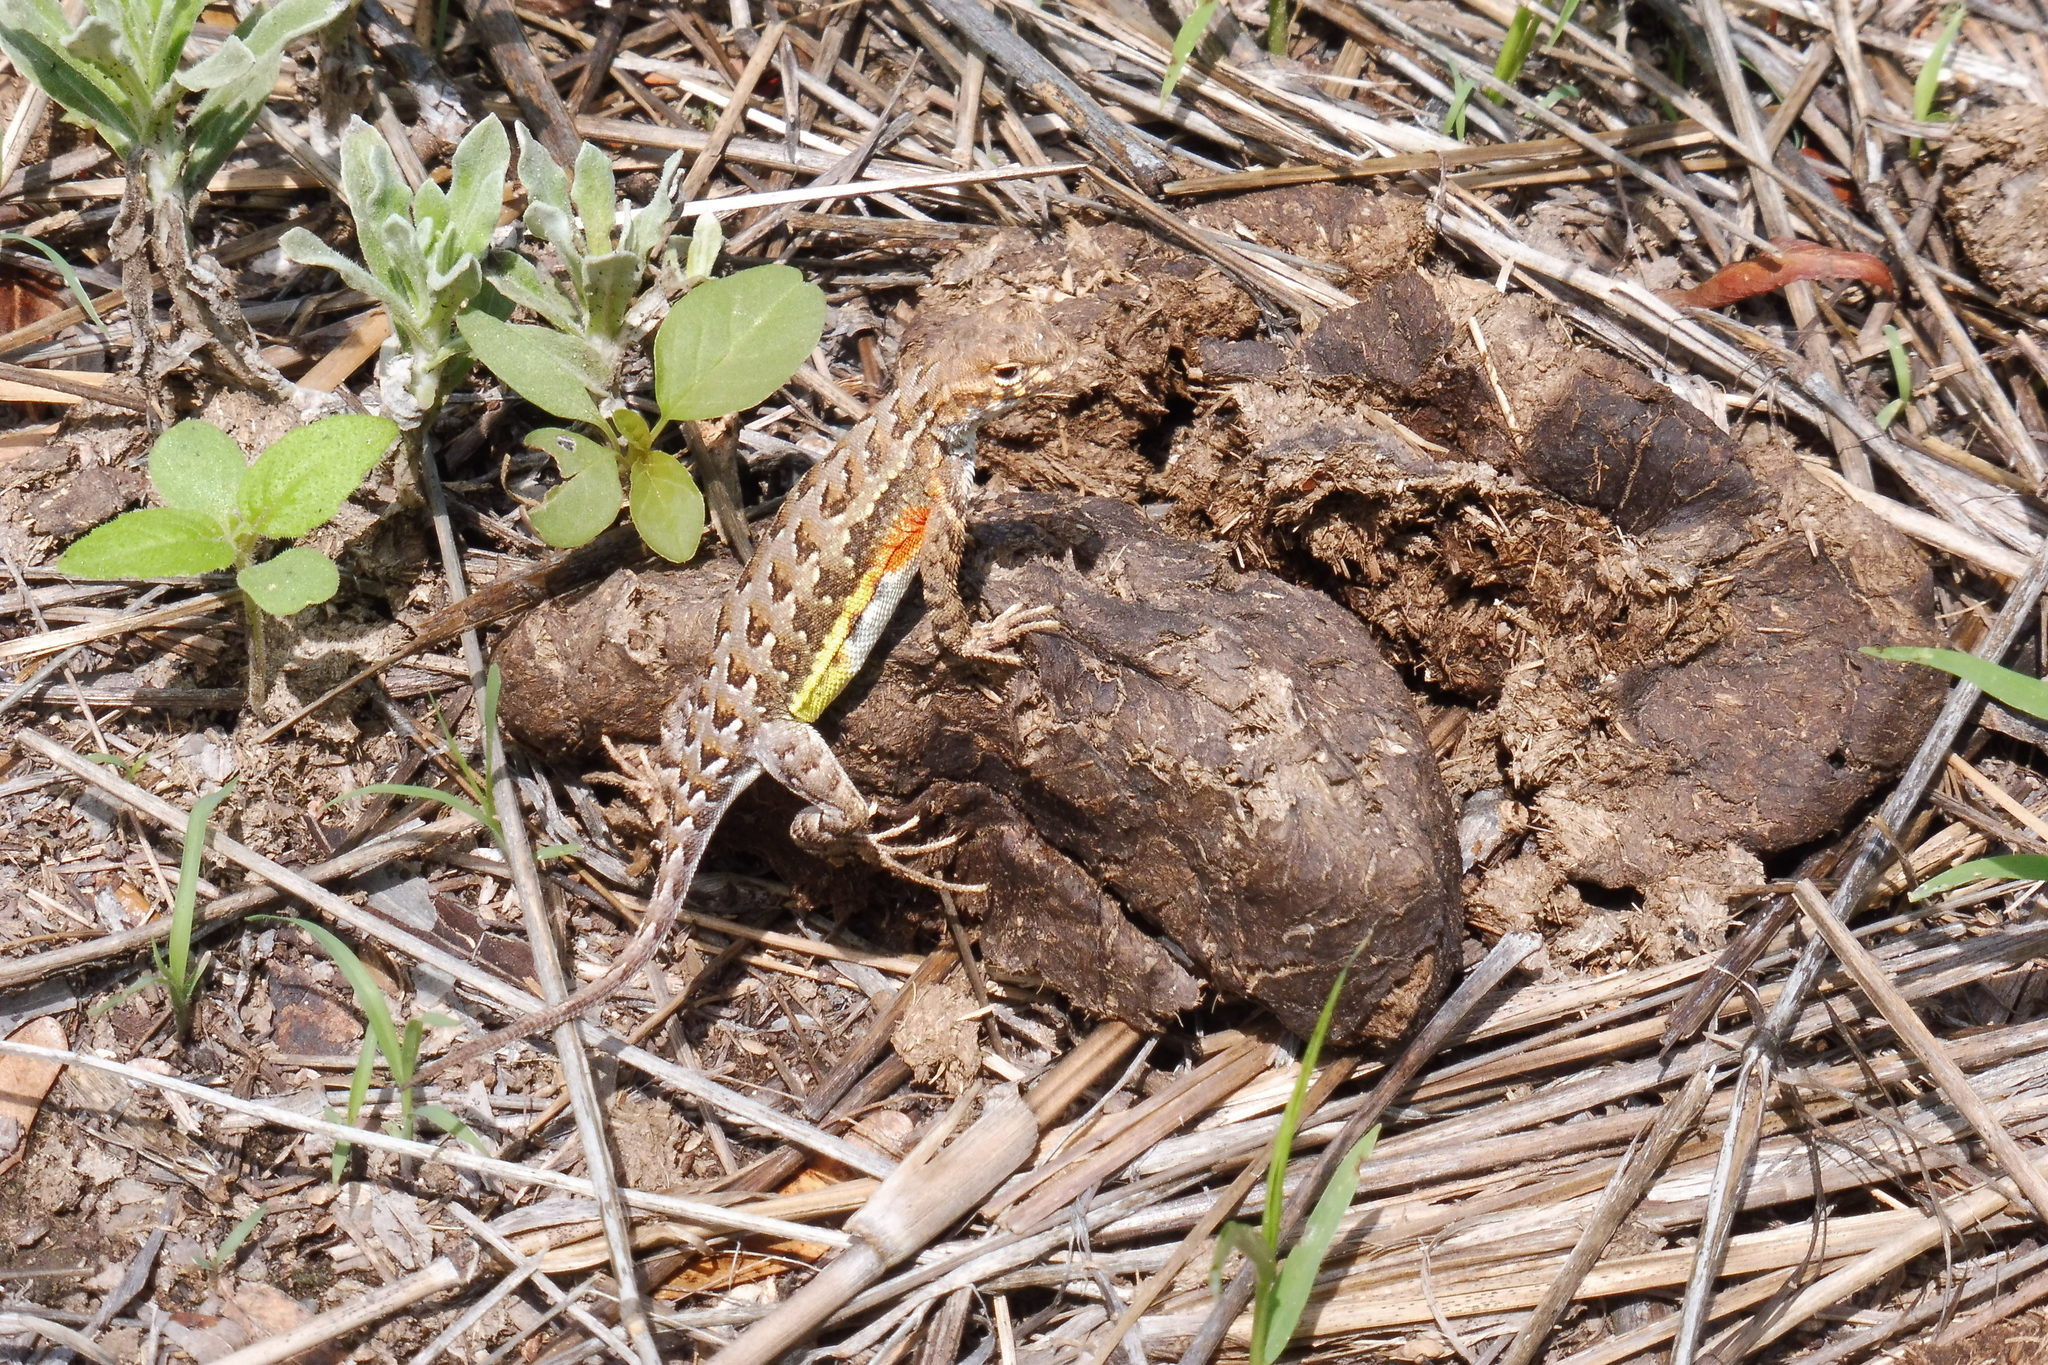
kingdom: Animalia
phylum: Chordata
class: Squamata
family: Phrynosomatidae
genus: Holbrookia
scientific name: Holbrookia elegans
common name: Elegant earless lizard
